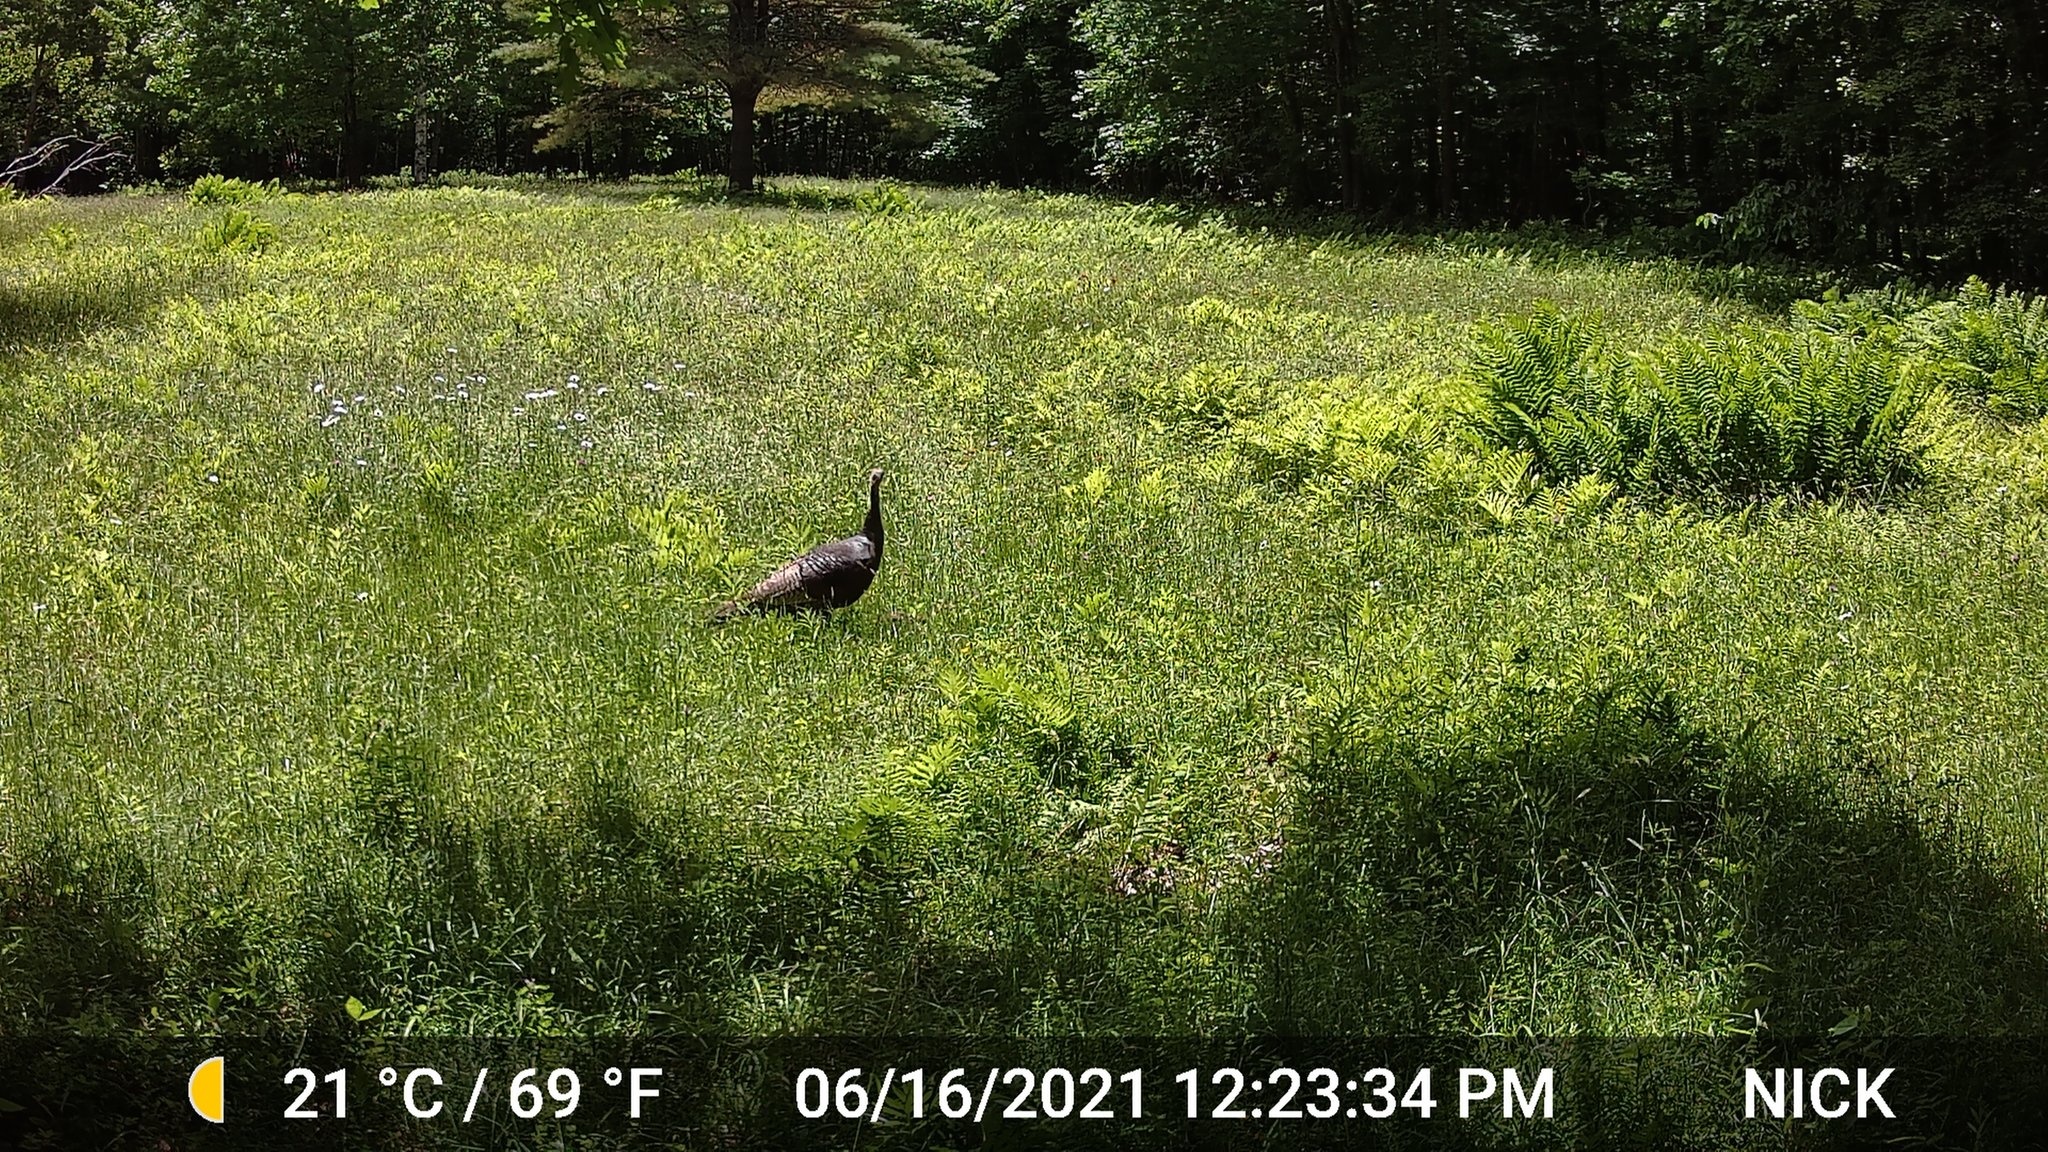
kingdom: Animalia
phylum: Chordata
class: Aves
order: Galliformes
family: Phasianidae
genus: Meleagris
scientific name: Meleagris gallopavo
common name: Wild turkey
